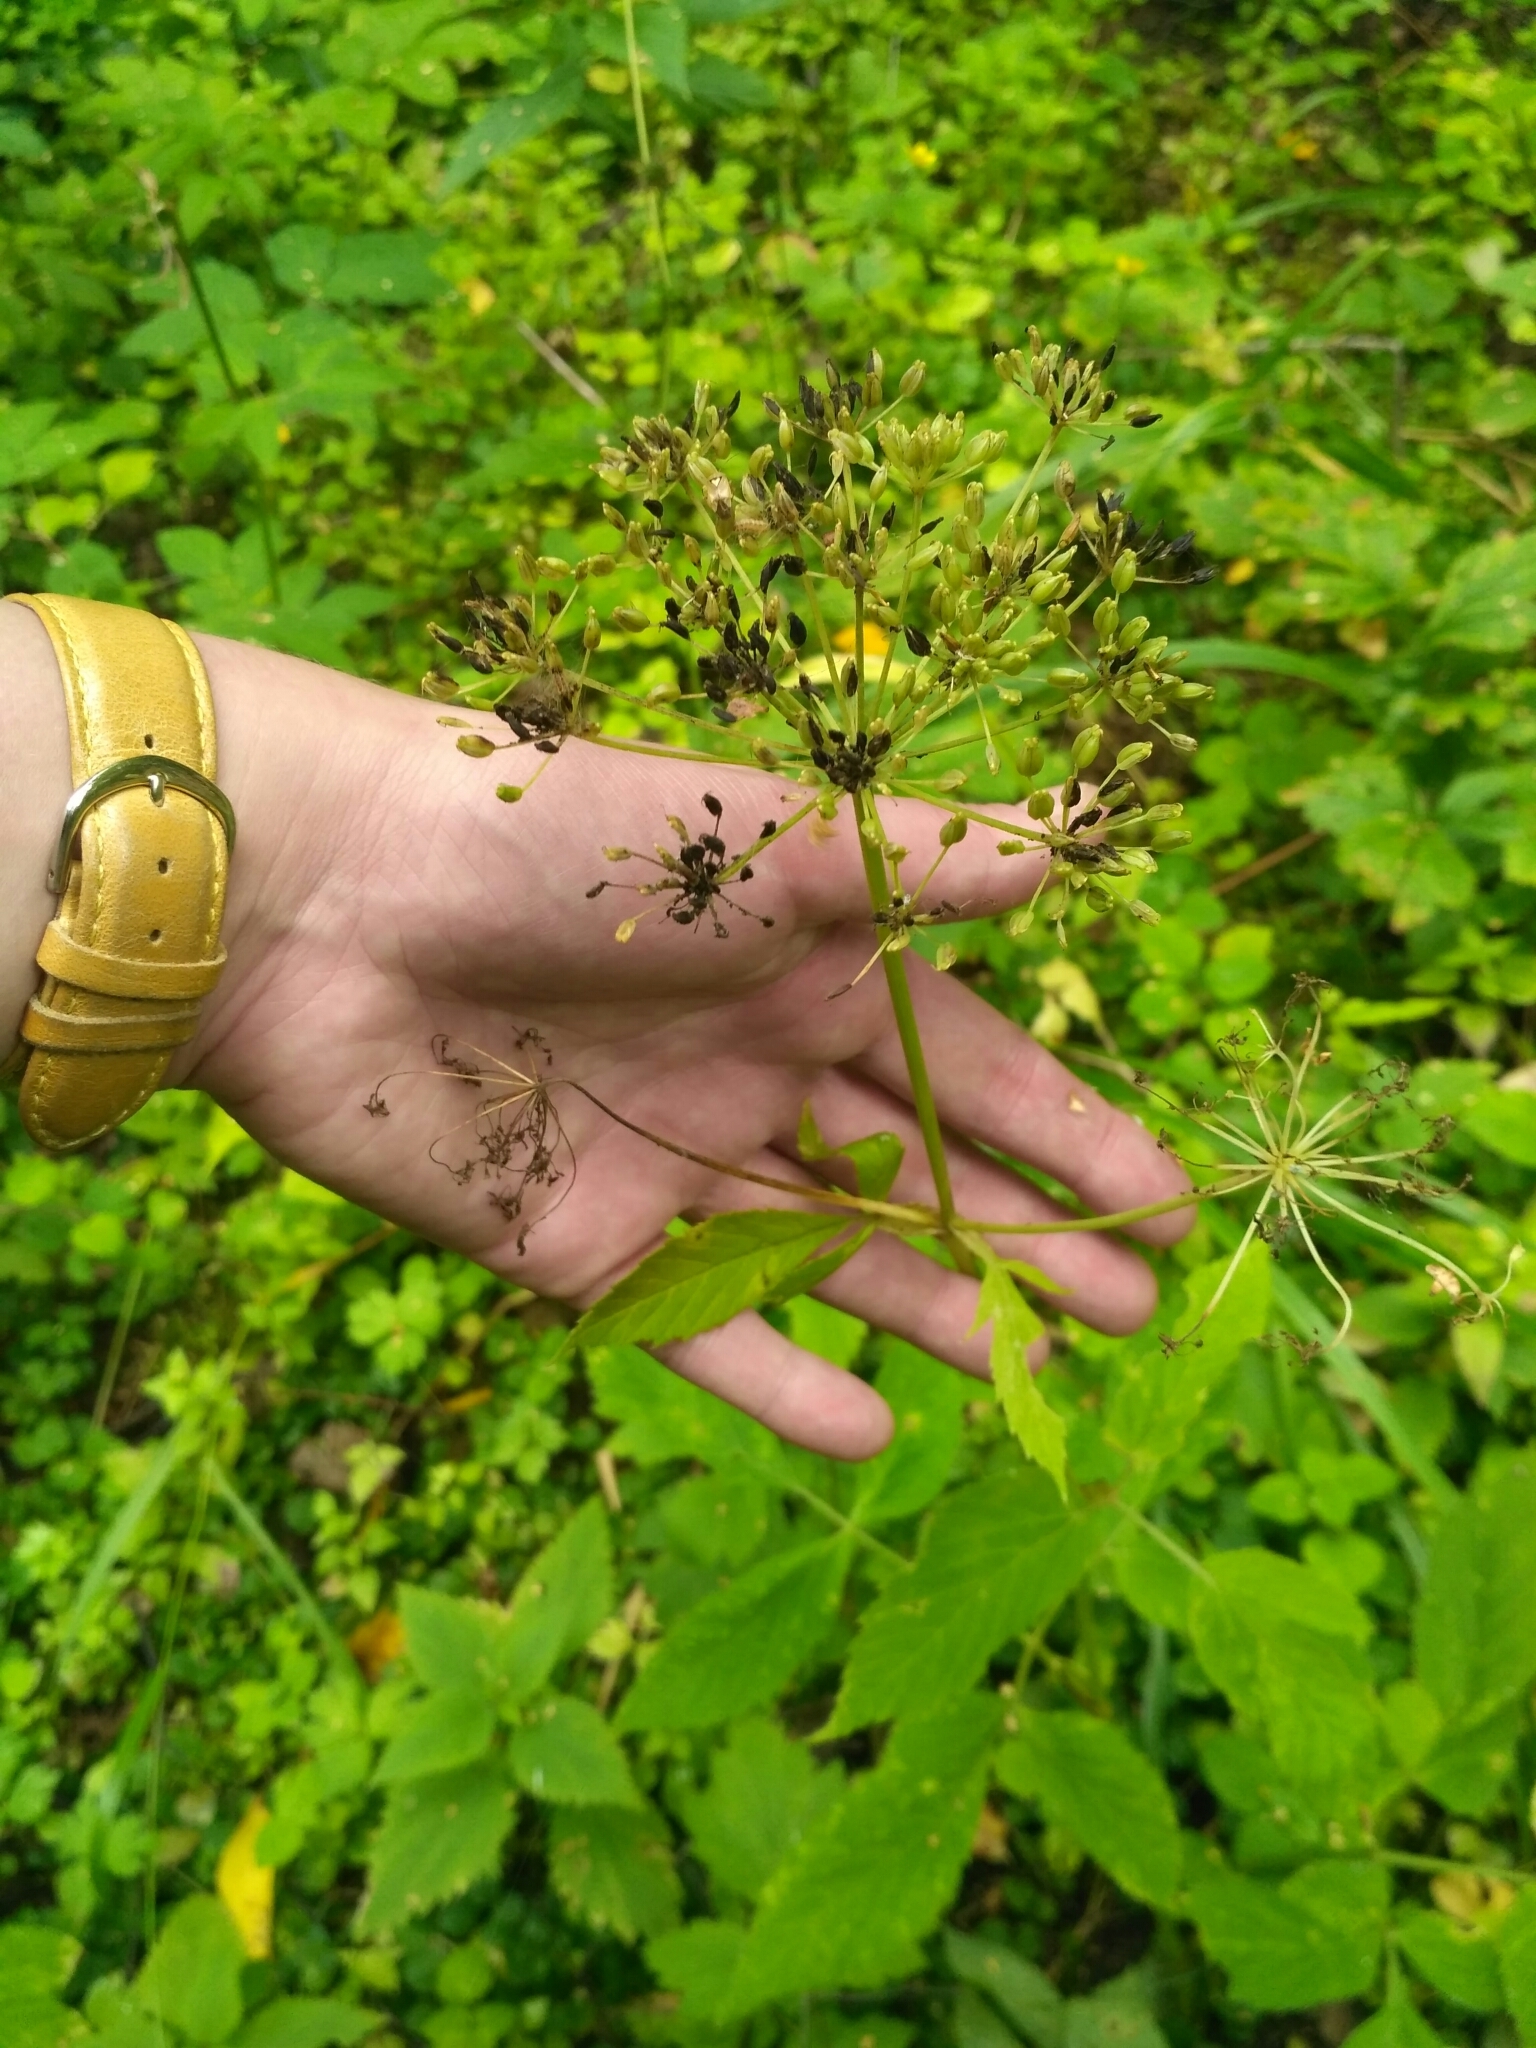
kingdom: Plantae
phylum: Tracheophyta
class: Magnoliopsida
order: Apiales
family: Apiaceae
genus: Aegopodium
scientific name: Aegopodium podagraria
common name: Ground-elder
